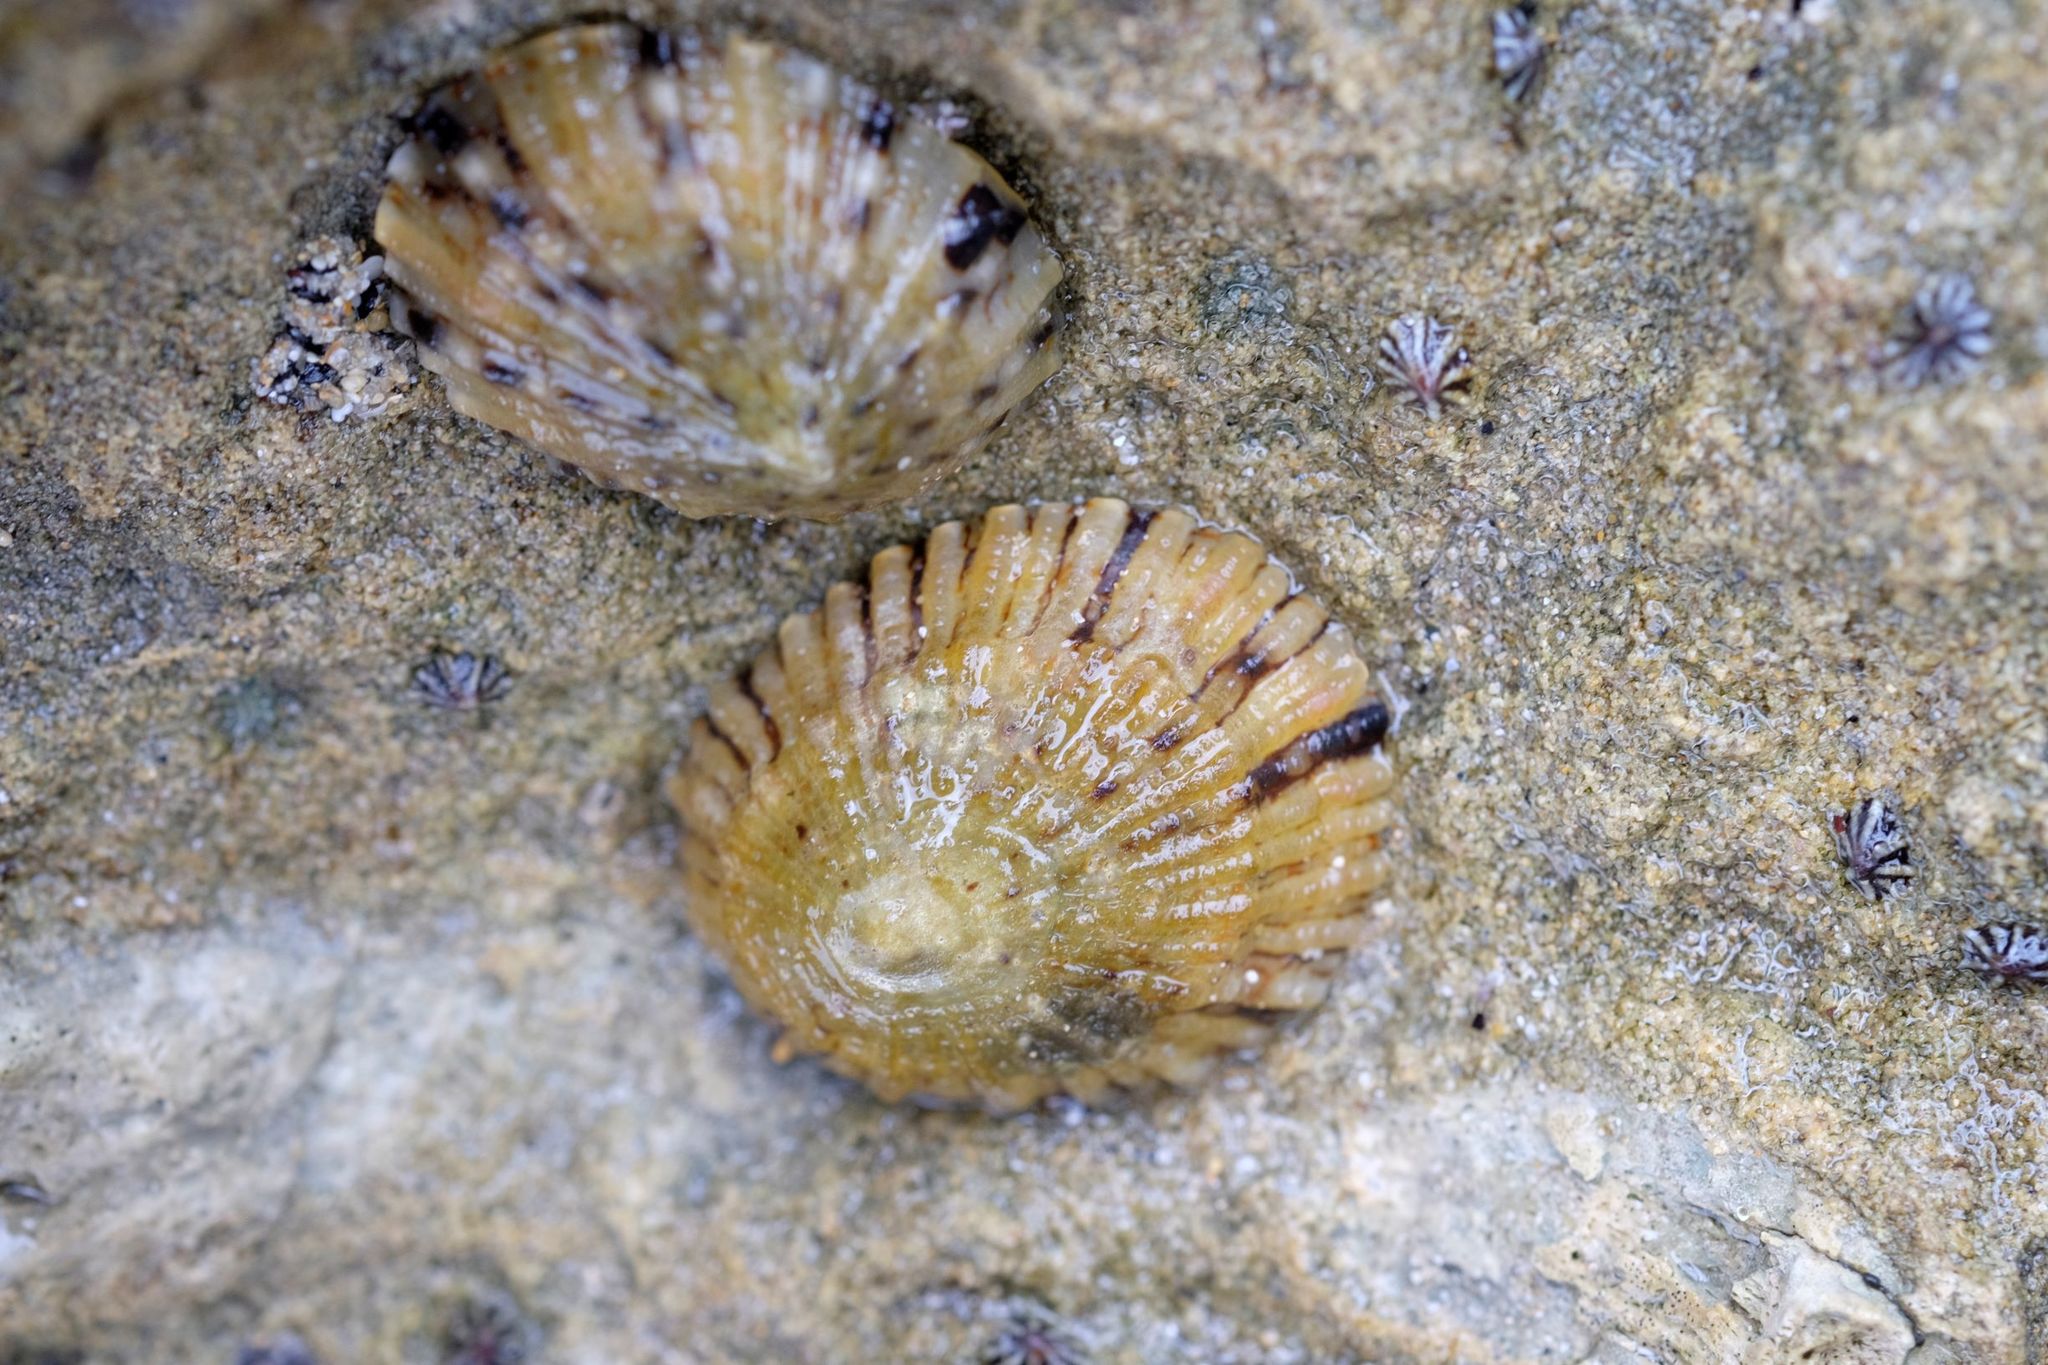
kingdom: Animalia
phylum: Mollusca
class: Gastropoda
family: Nacellidae
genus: Cellana
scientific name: Cellana tramoserica
